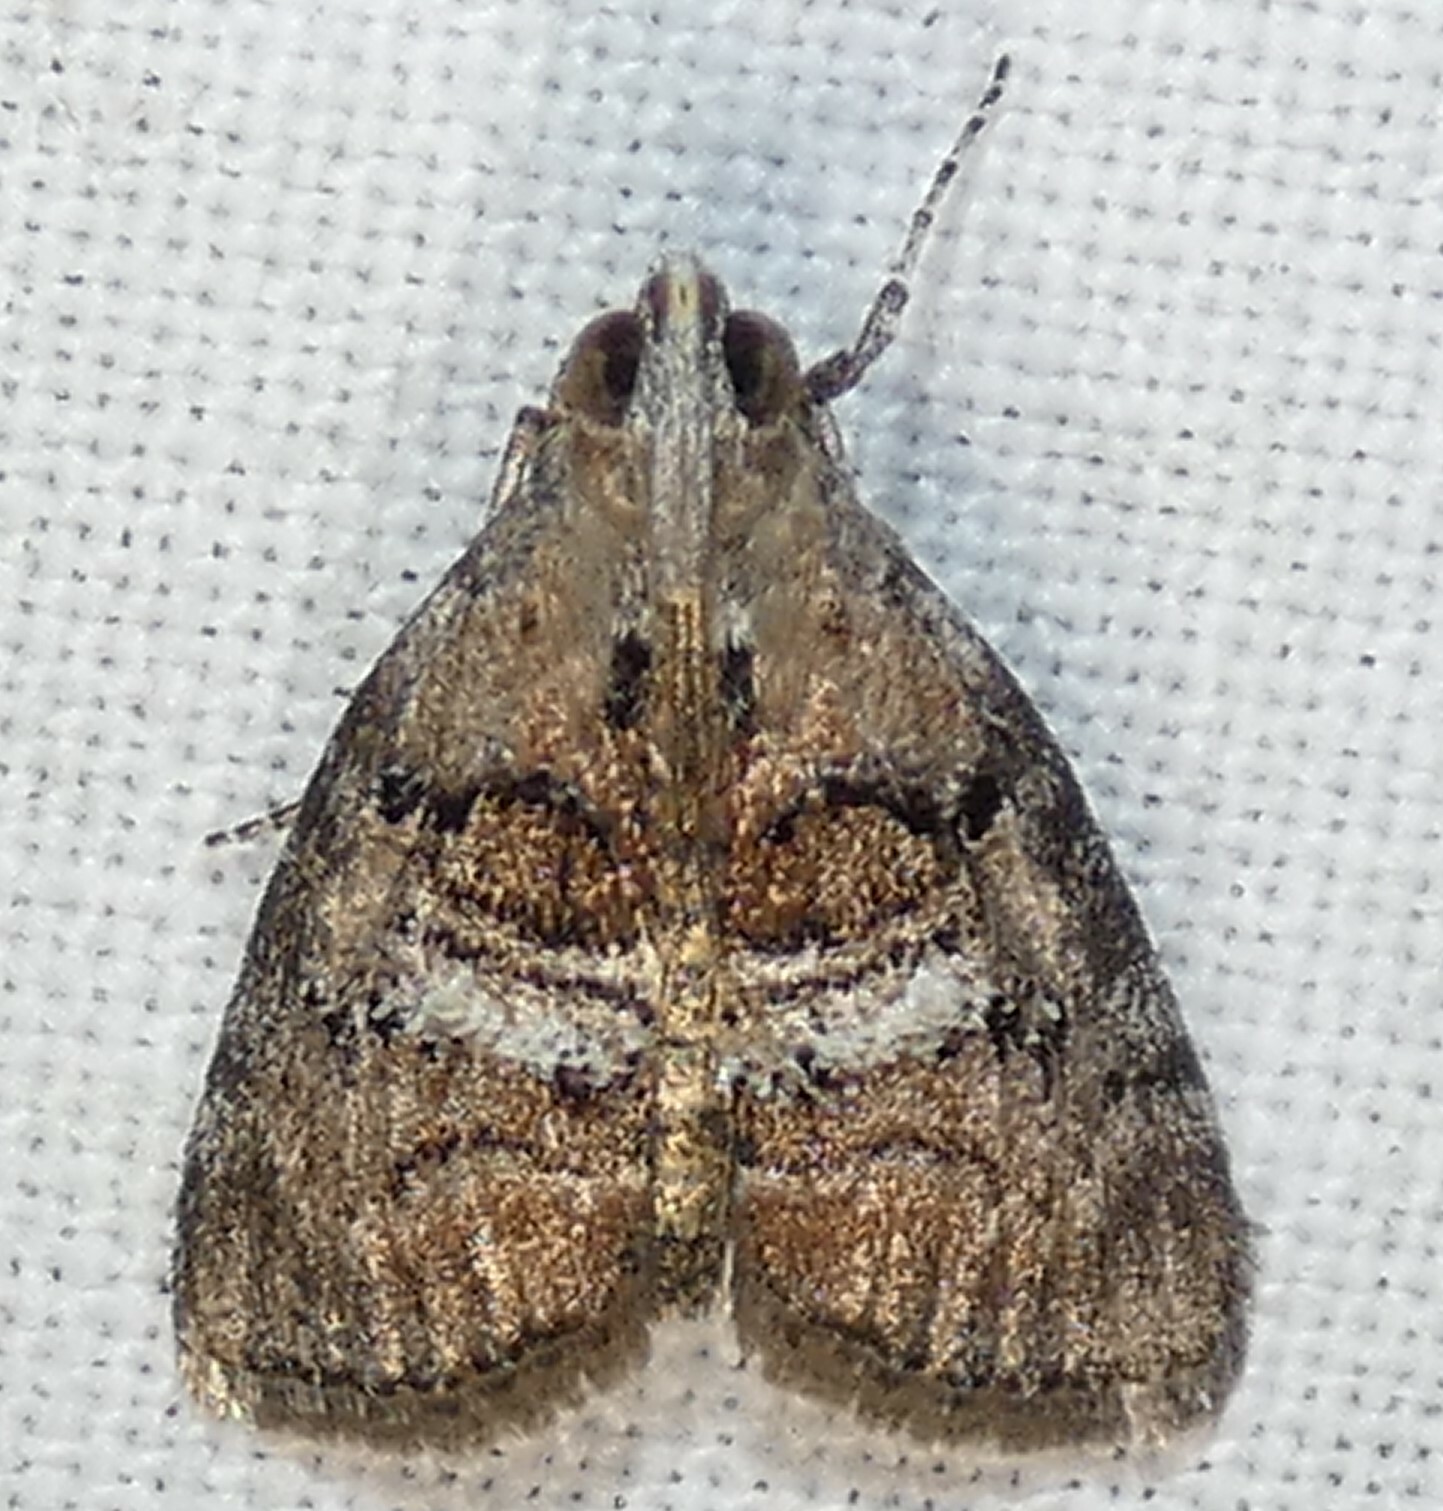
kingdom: Animalia
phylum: Arthropoda
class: Insecta
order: Lepidoptera
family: Pyralidae
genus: Pococera
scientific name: Pococera asperatella
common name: Maple webworm moth
